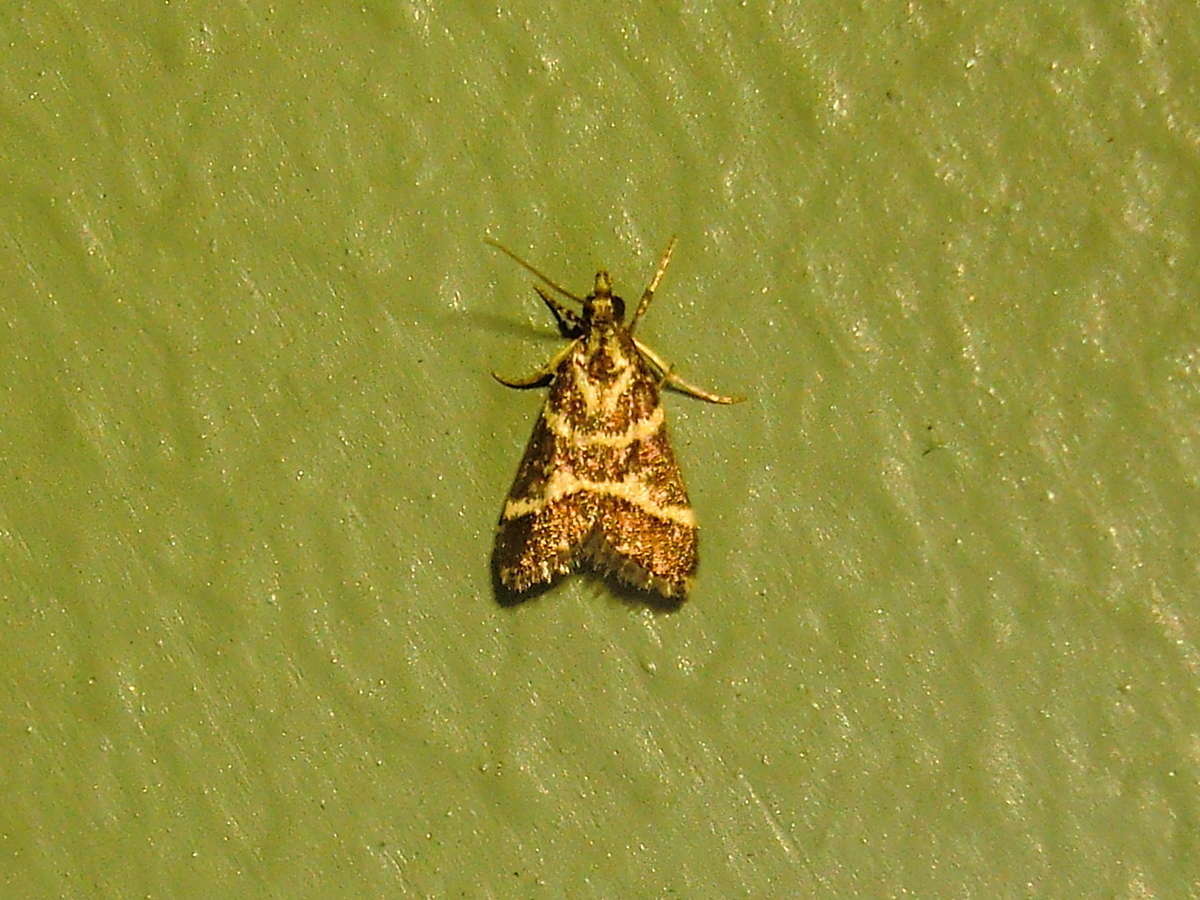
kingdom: Animalia
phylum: Arthropoda
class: Insecta
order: Lepidoptera
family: Crambidae
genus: Scoparia
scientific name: Scoparia spelaea
